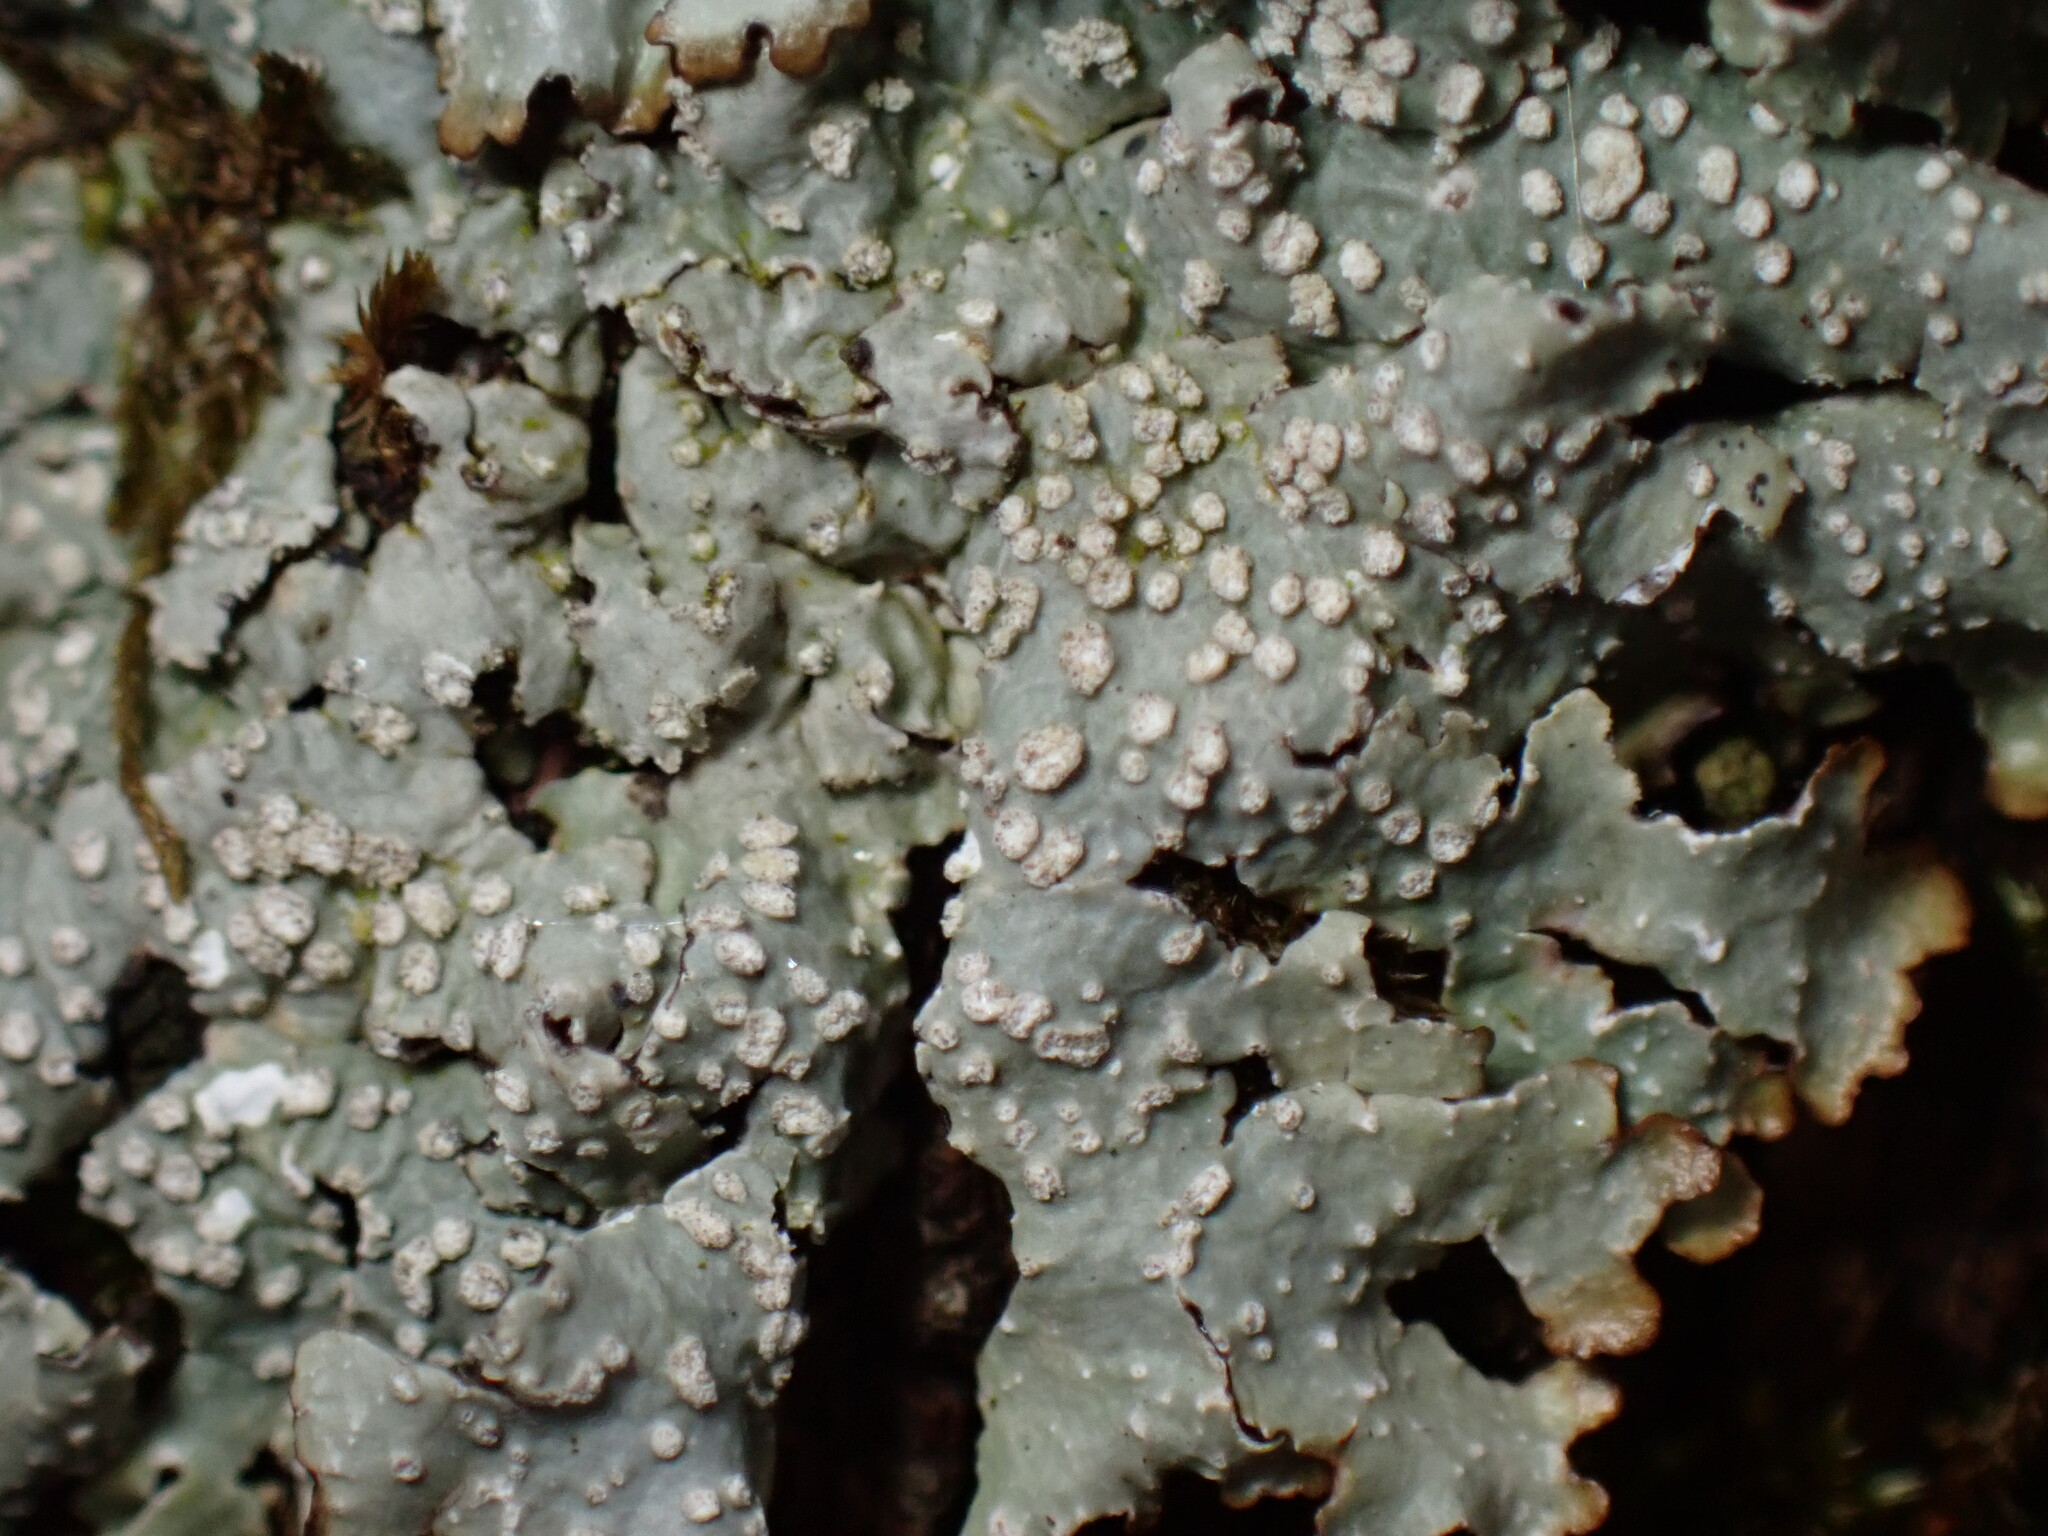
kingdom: Fungi
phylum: Ascomycota
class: Lecanoromycetes
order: Lecanorales
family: Parmeliaceae
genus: Punctelia
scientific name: Punctelia caseana
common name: Moondust speckled lichen
